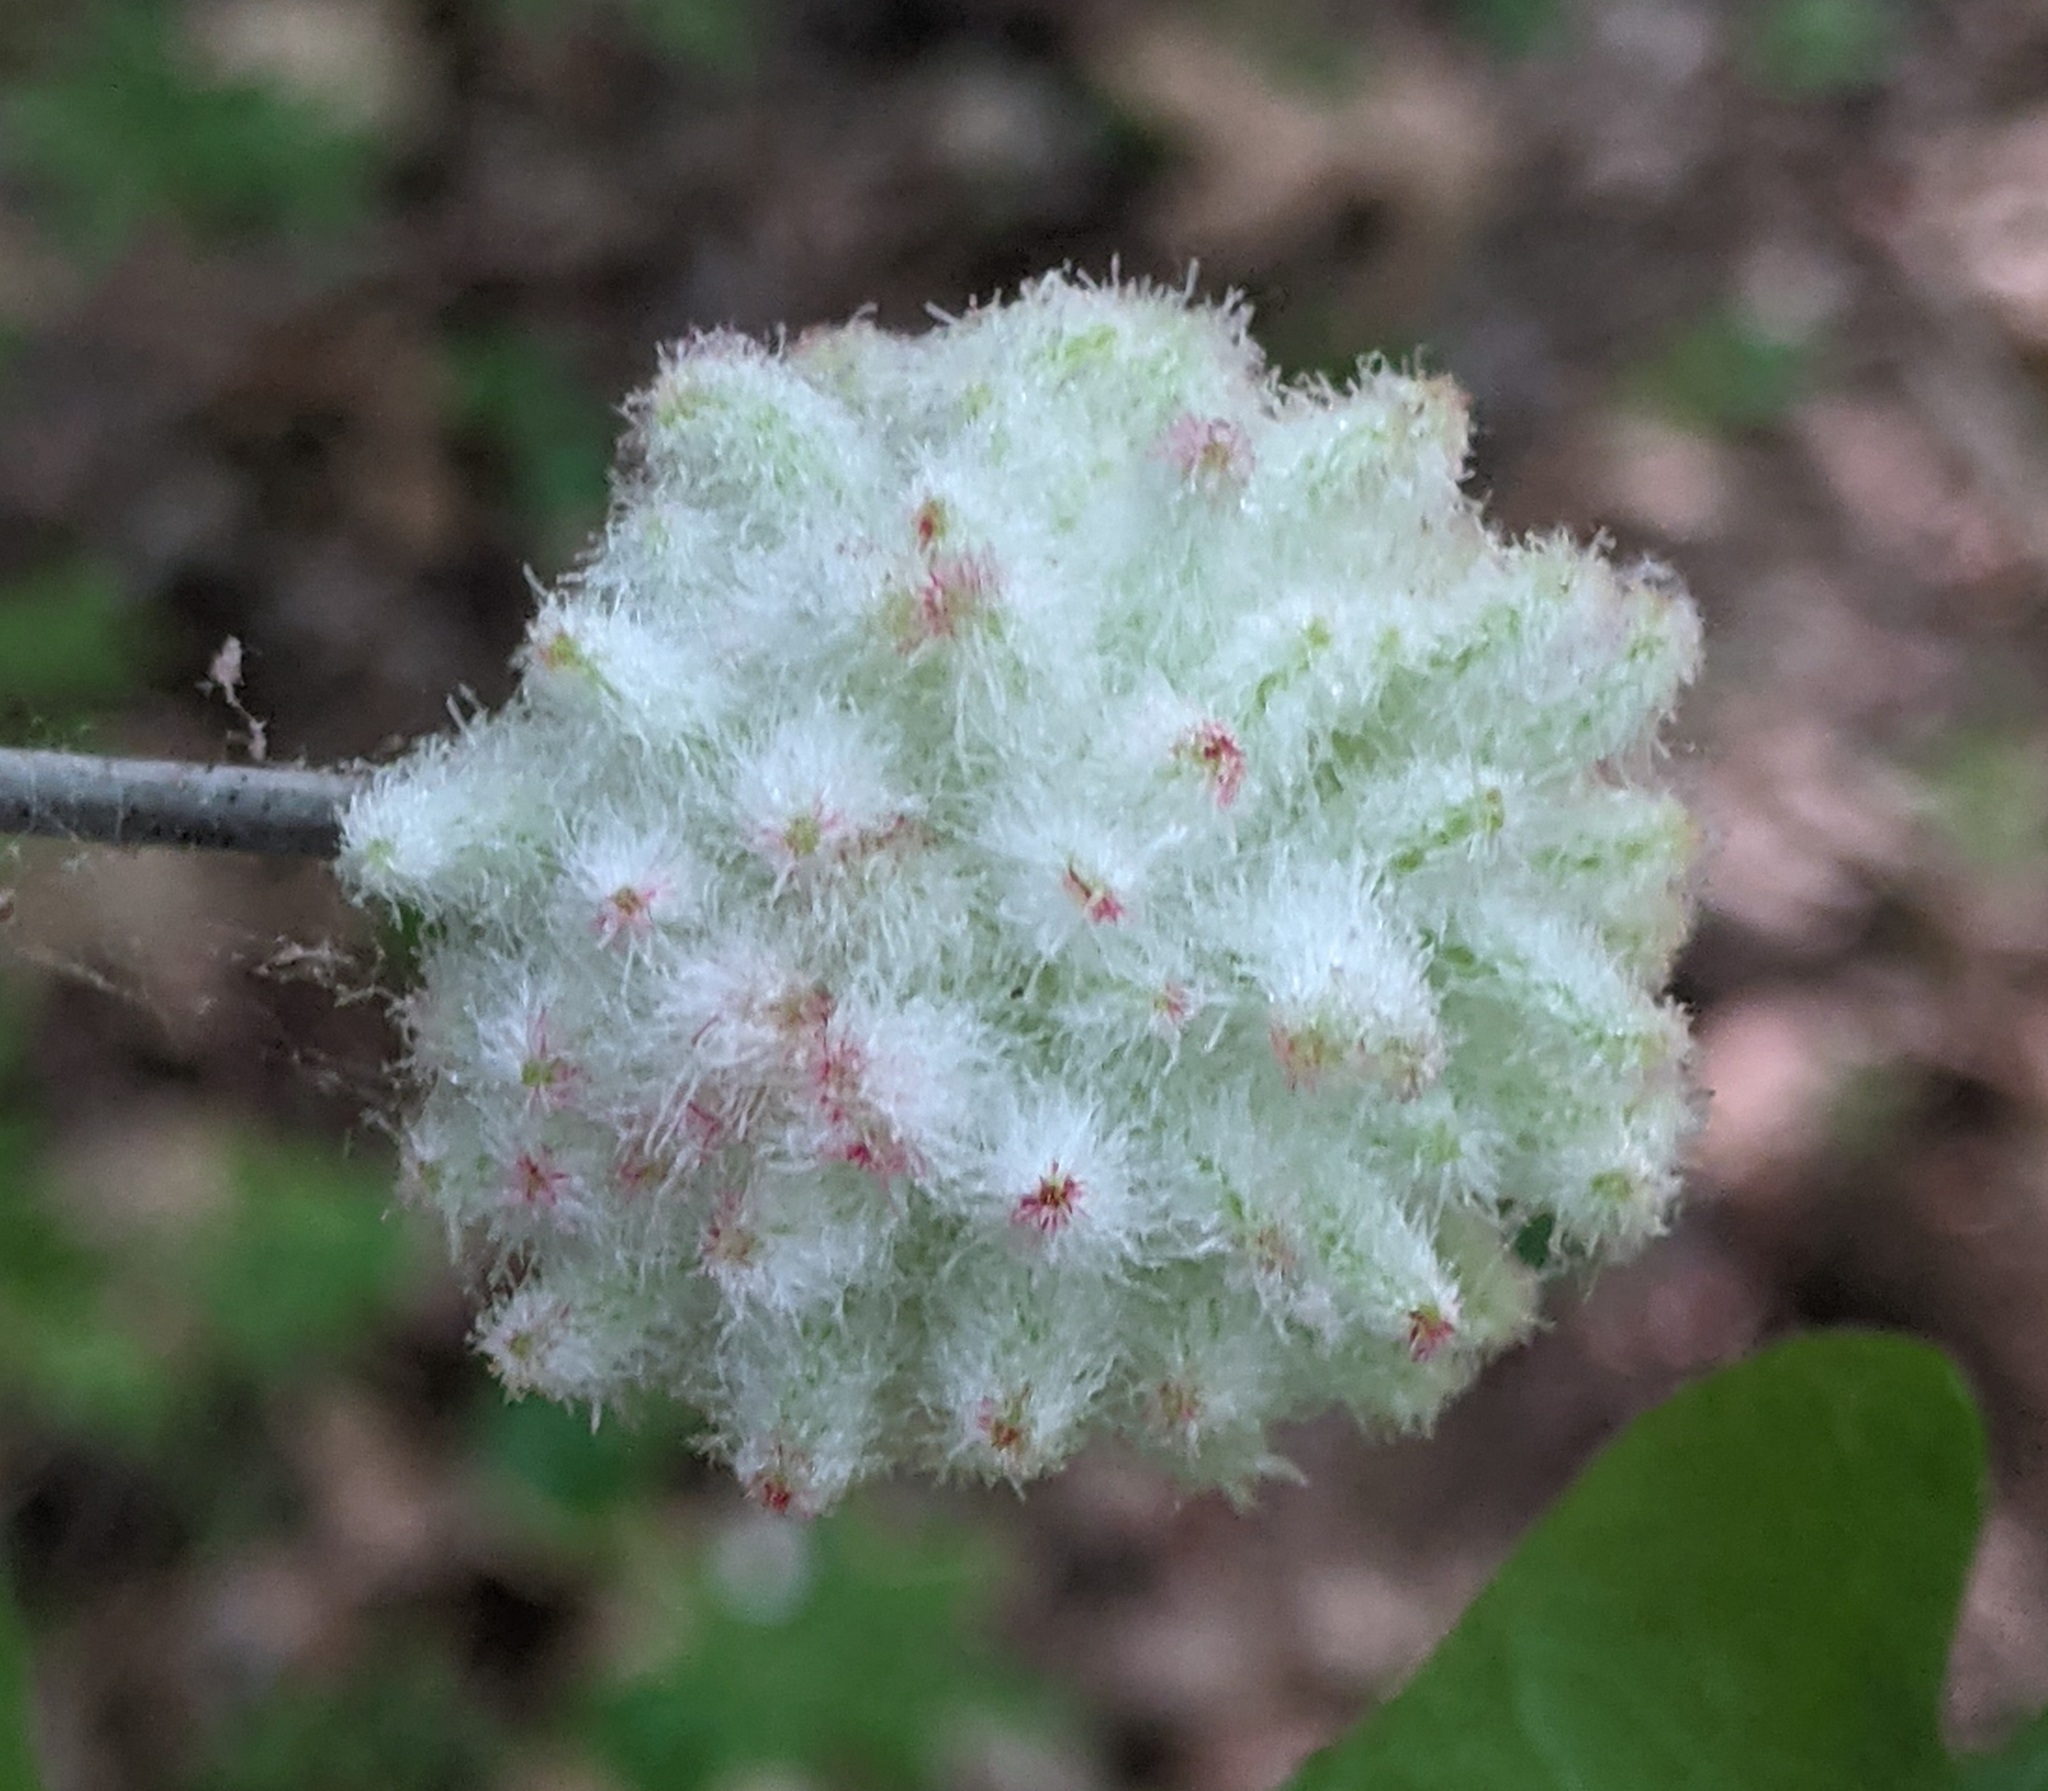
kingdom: Animalia
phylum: Arthropoda
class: Insecta
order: Hymenoptera
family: Cynipidae
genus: Callirhytis
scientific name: Callirhytis
